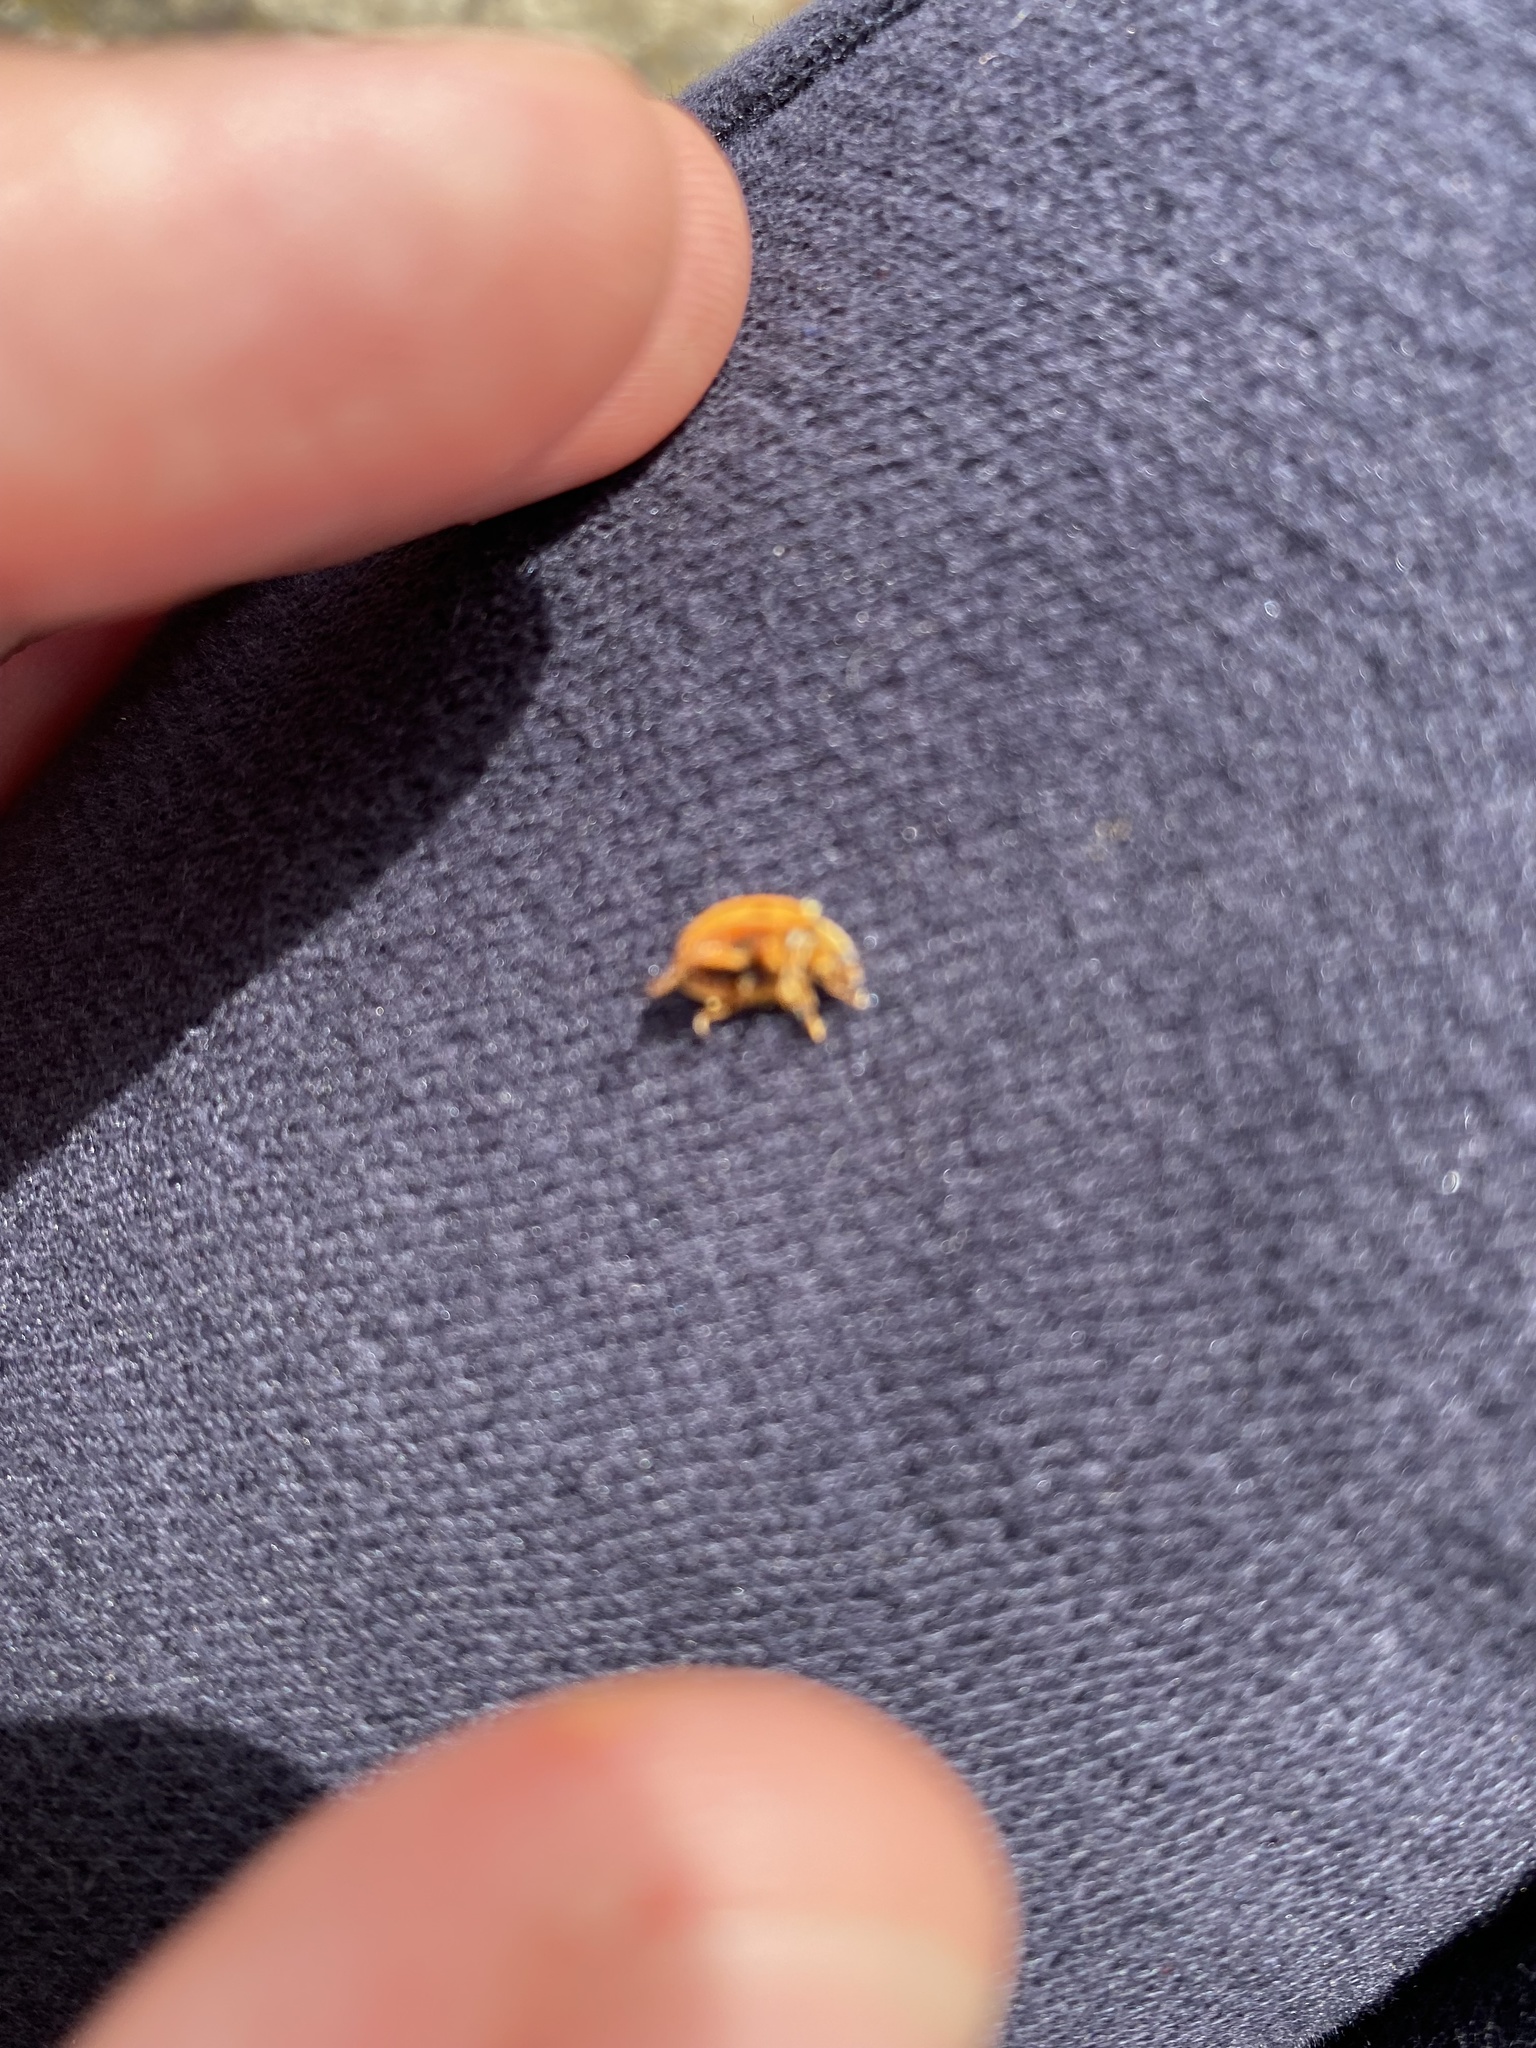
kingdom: Animalia
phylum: Arthropoda
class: Insecta
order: Coleoptera
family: Coccinellidae
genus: Harmonia
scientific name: Harmonia axyridis
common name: Harlequin ladybird
